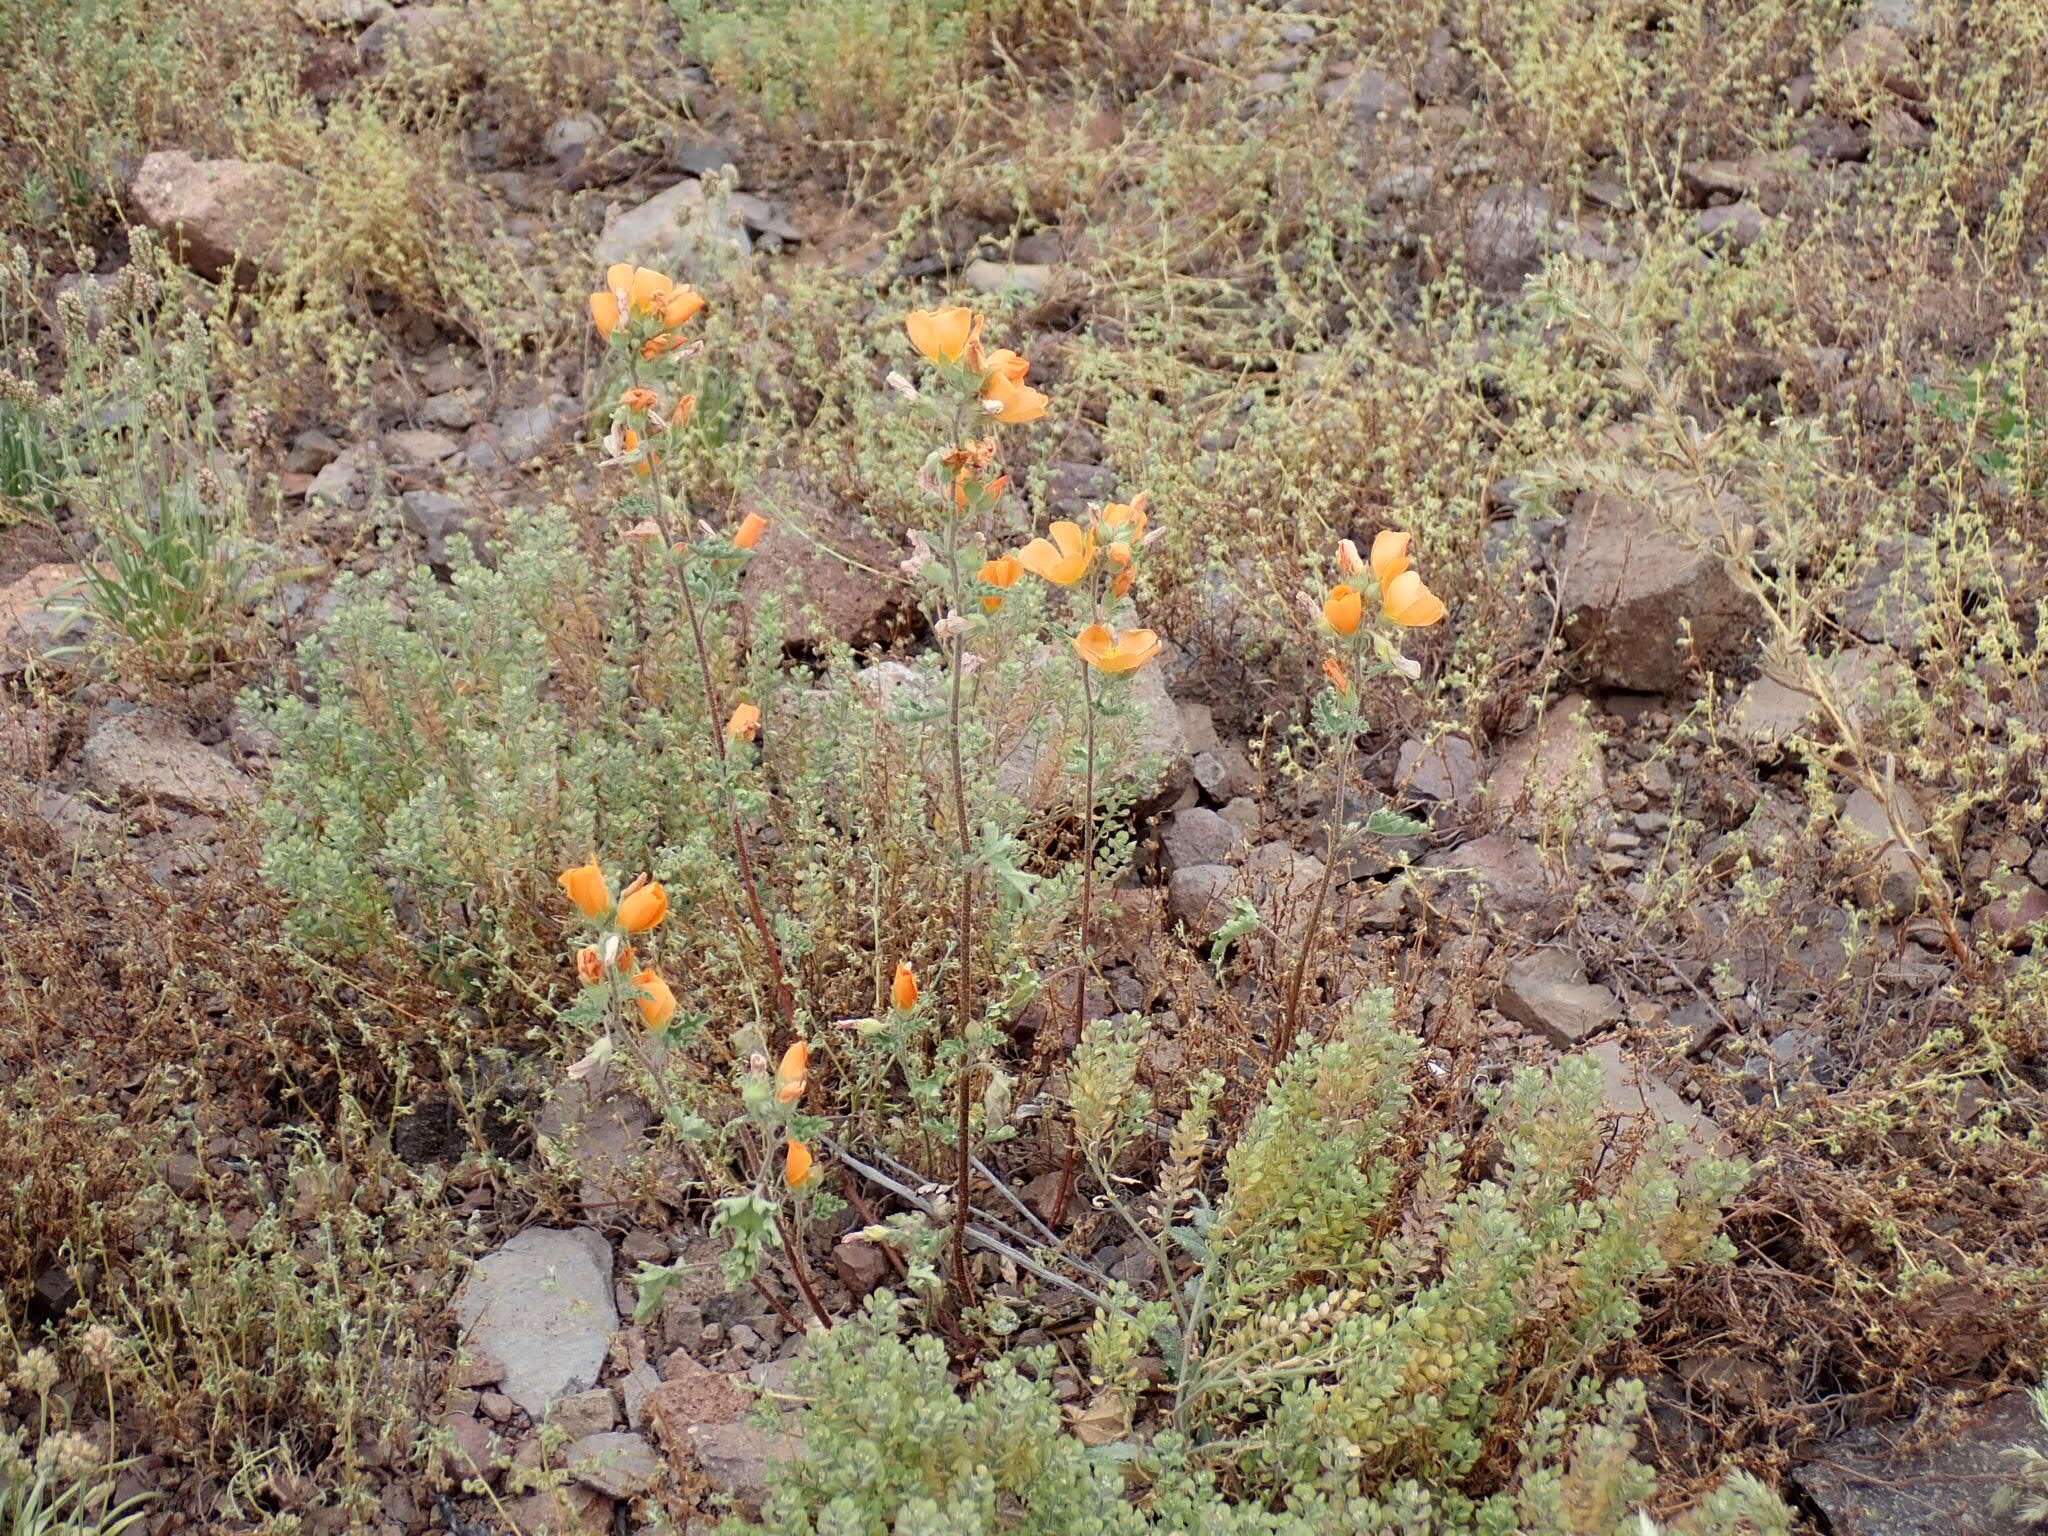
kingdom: Plantae
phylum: Tracheophyta
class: Magnoliopsida
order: Malvales
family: Malvaceae
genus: Sphaeralcea
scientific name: Sphaeralcea coulteri
